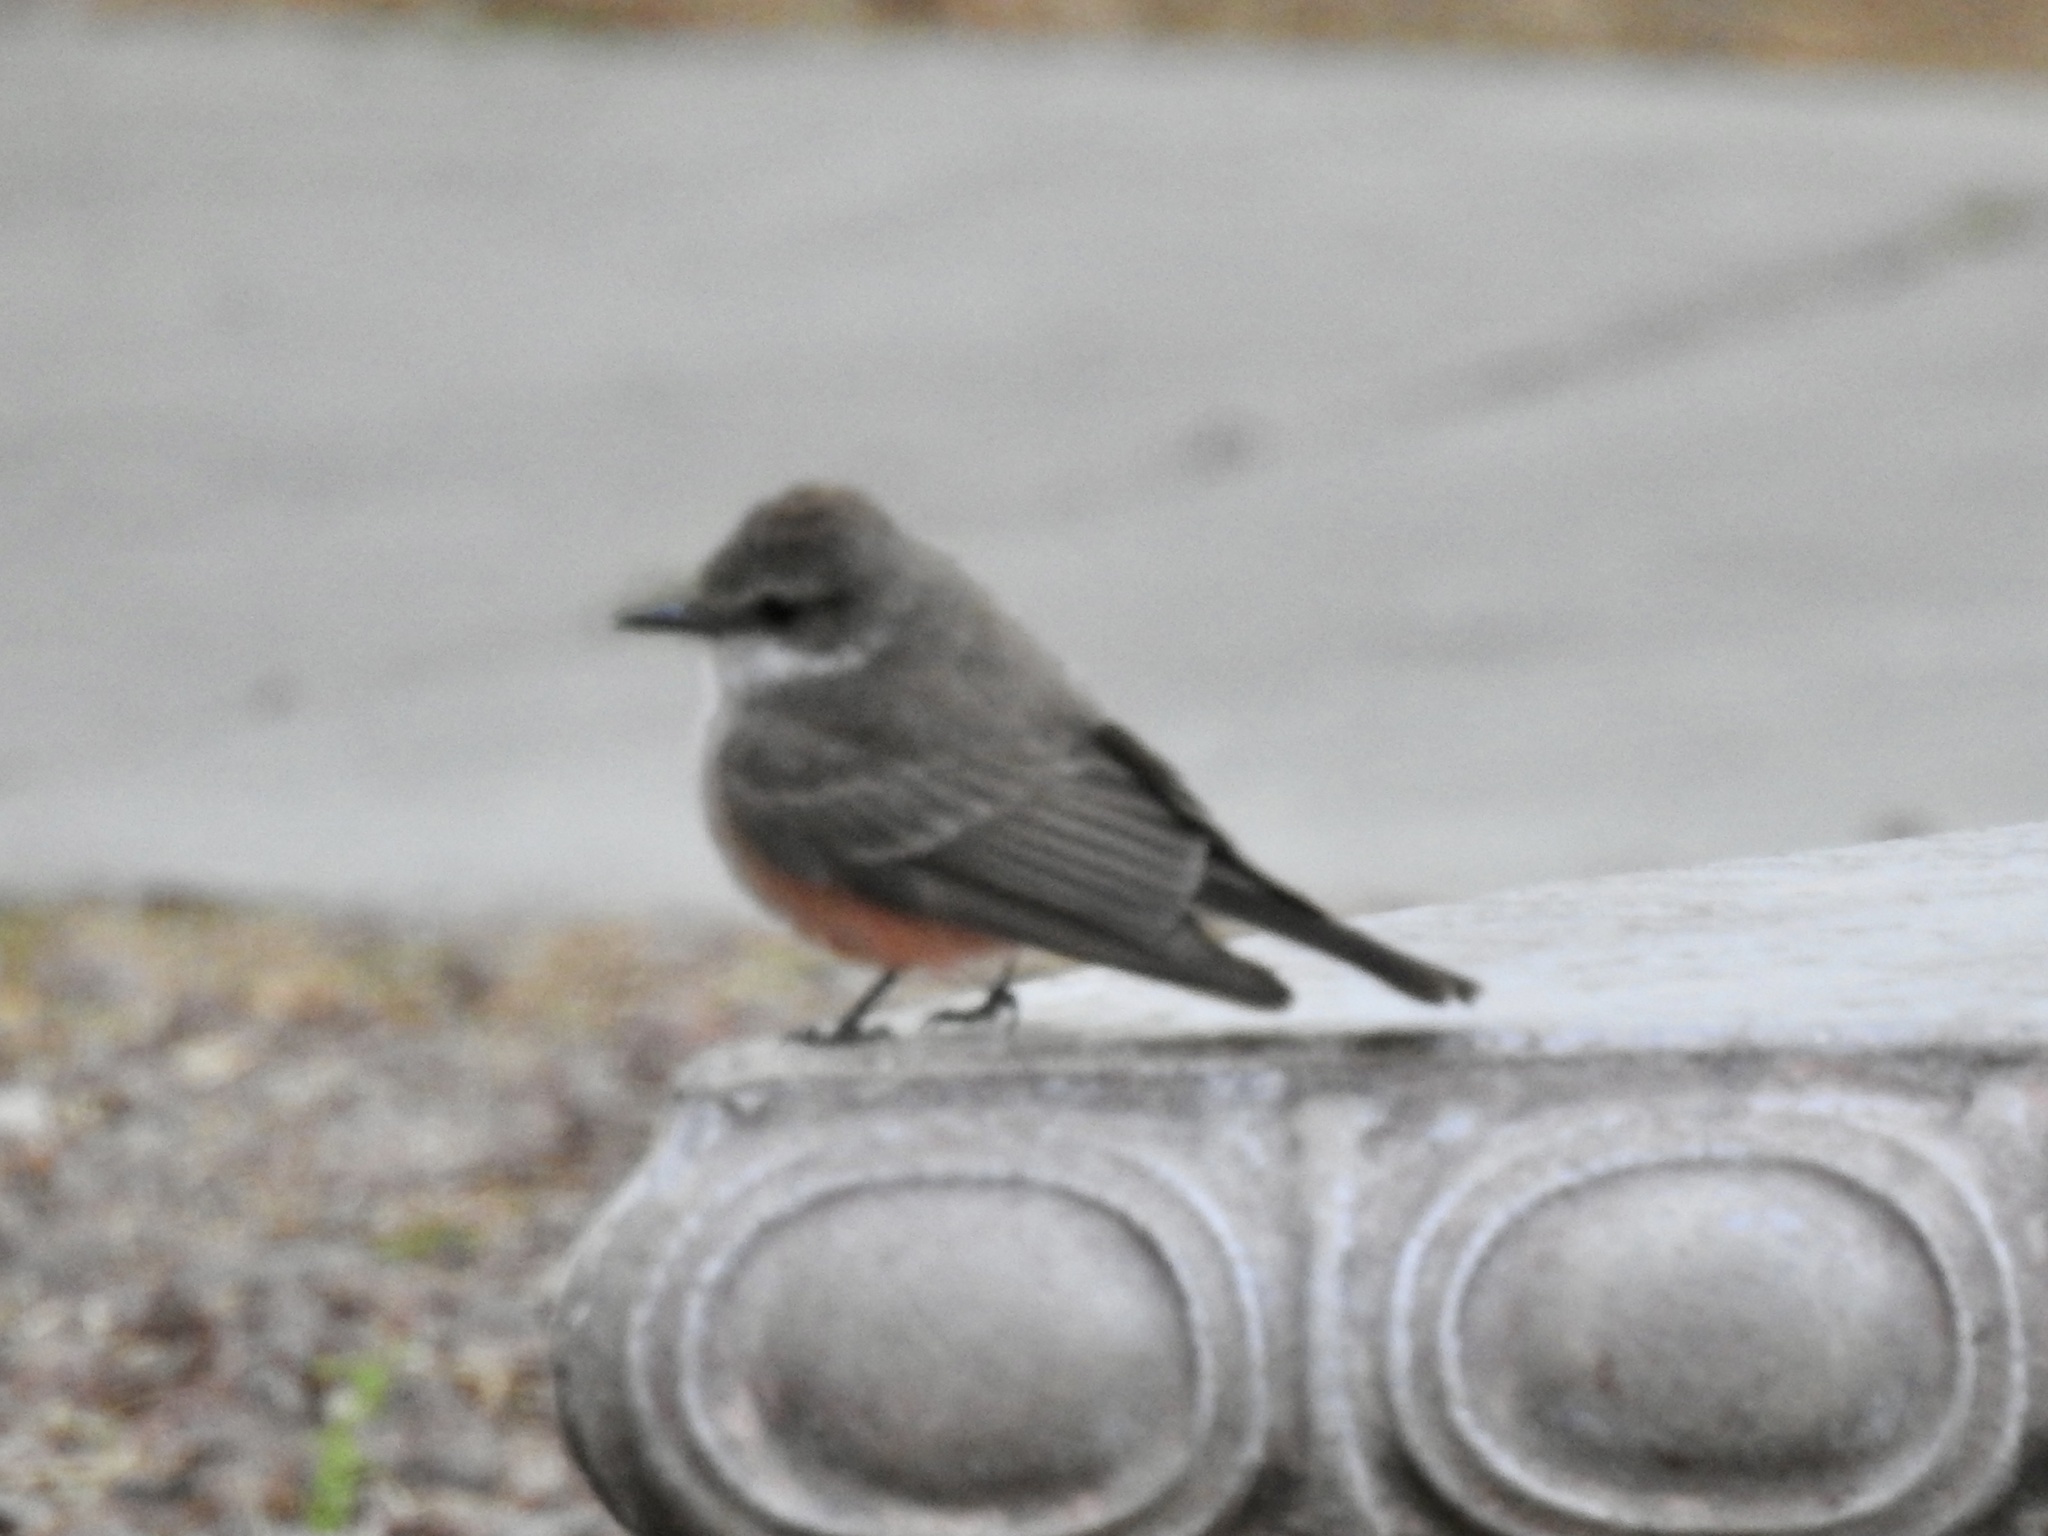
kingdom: Animalia
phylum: Chordata
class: Aves
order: Passeriformes
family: Tyrannidae
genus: Pyrocephalus
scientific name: Pyrocephalus rubinus
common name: Vermilion flycatcher
